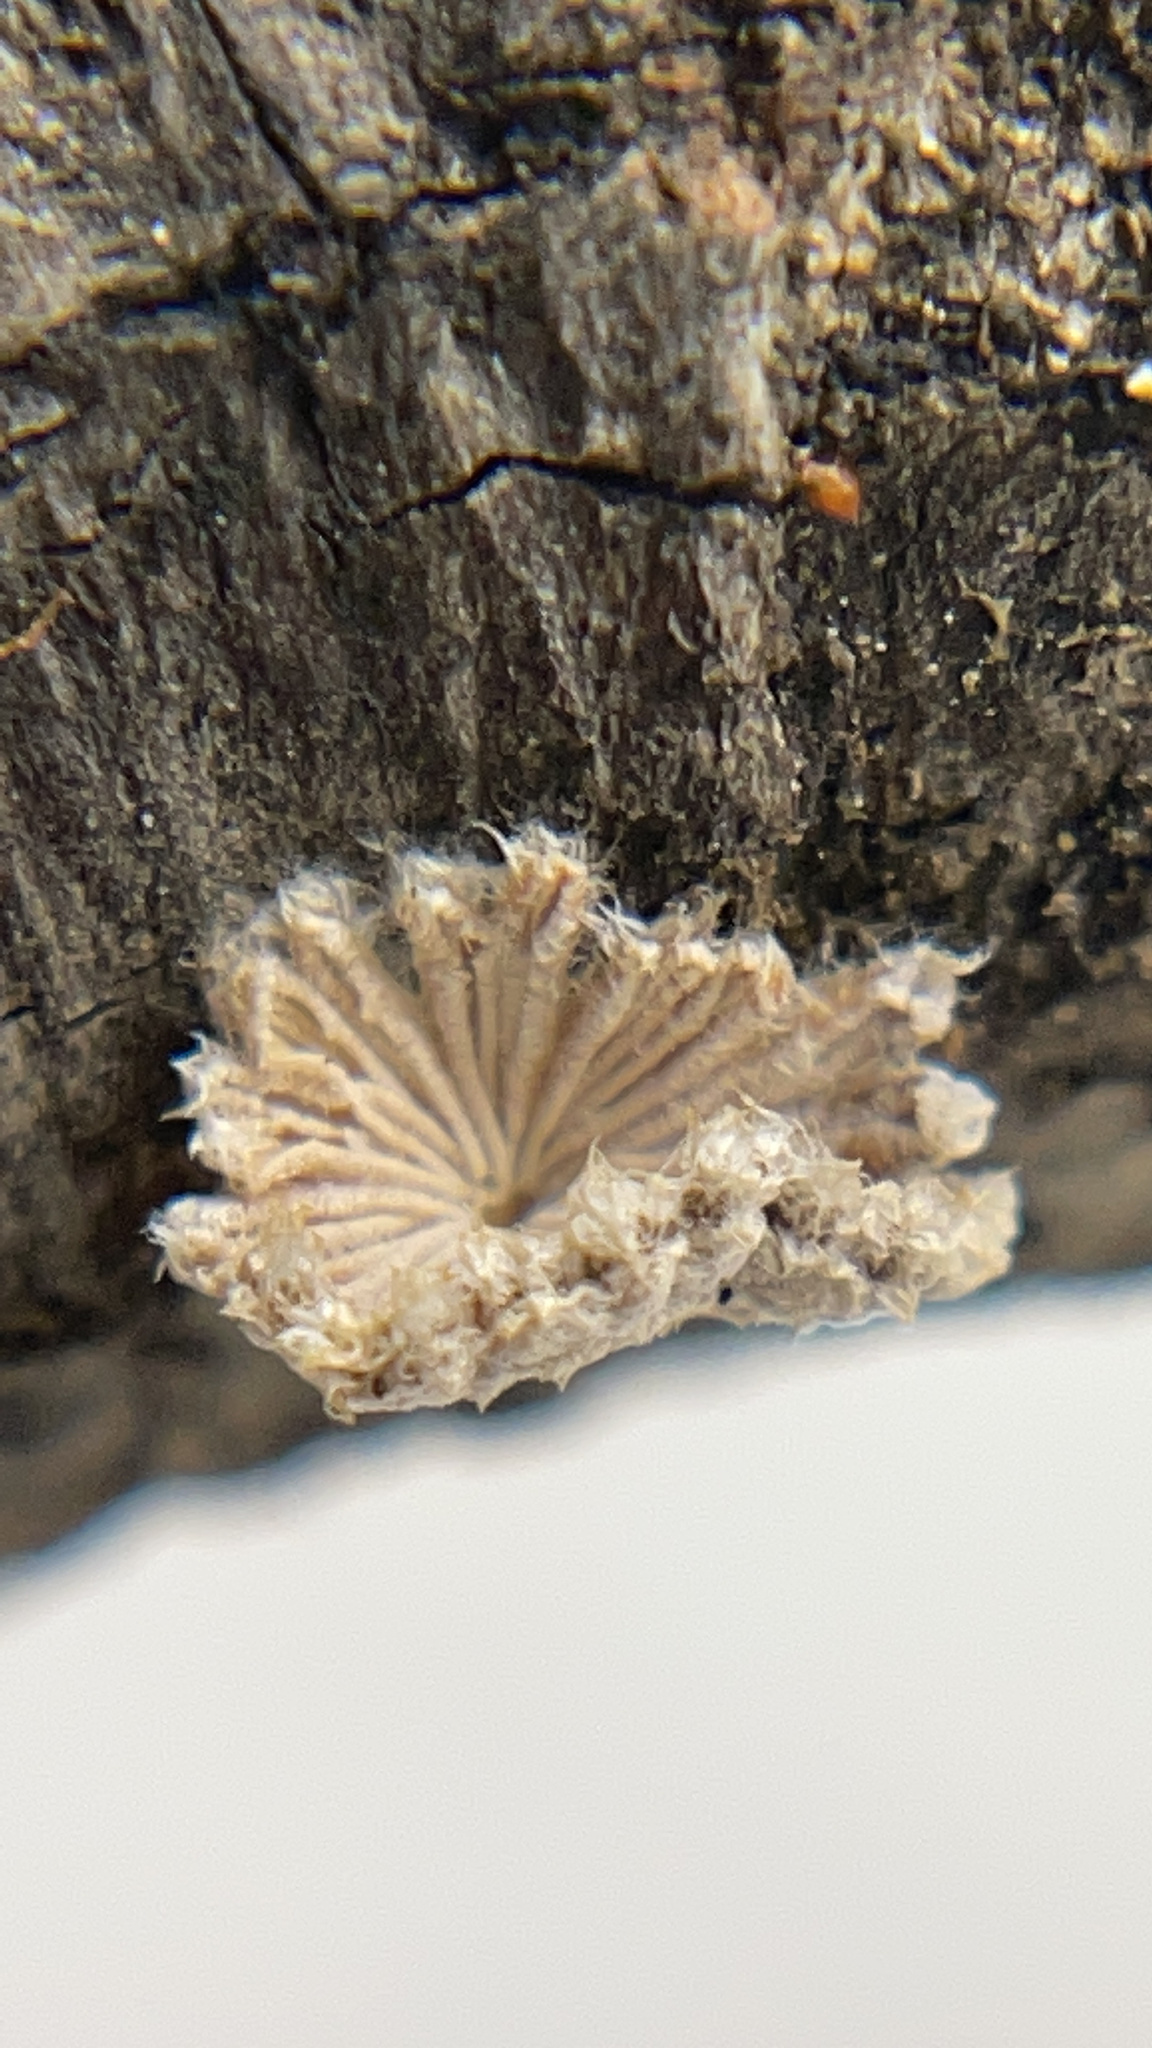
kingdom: Fungi
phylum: Basidiomycota
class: Agaricomycetes
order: Agaricales
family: Schizophyllaceae
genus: Schizophyllum
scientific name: Schizophyllum commune
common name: Common porecrust
